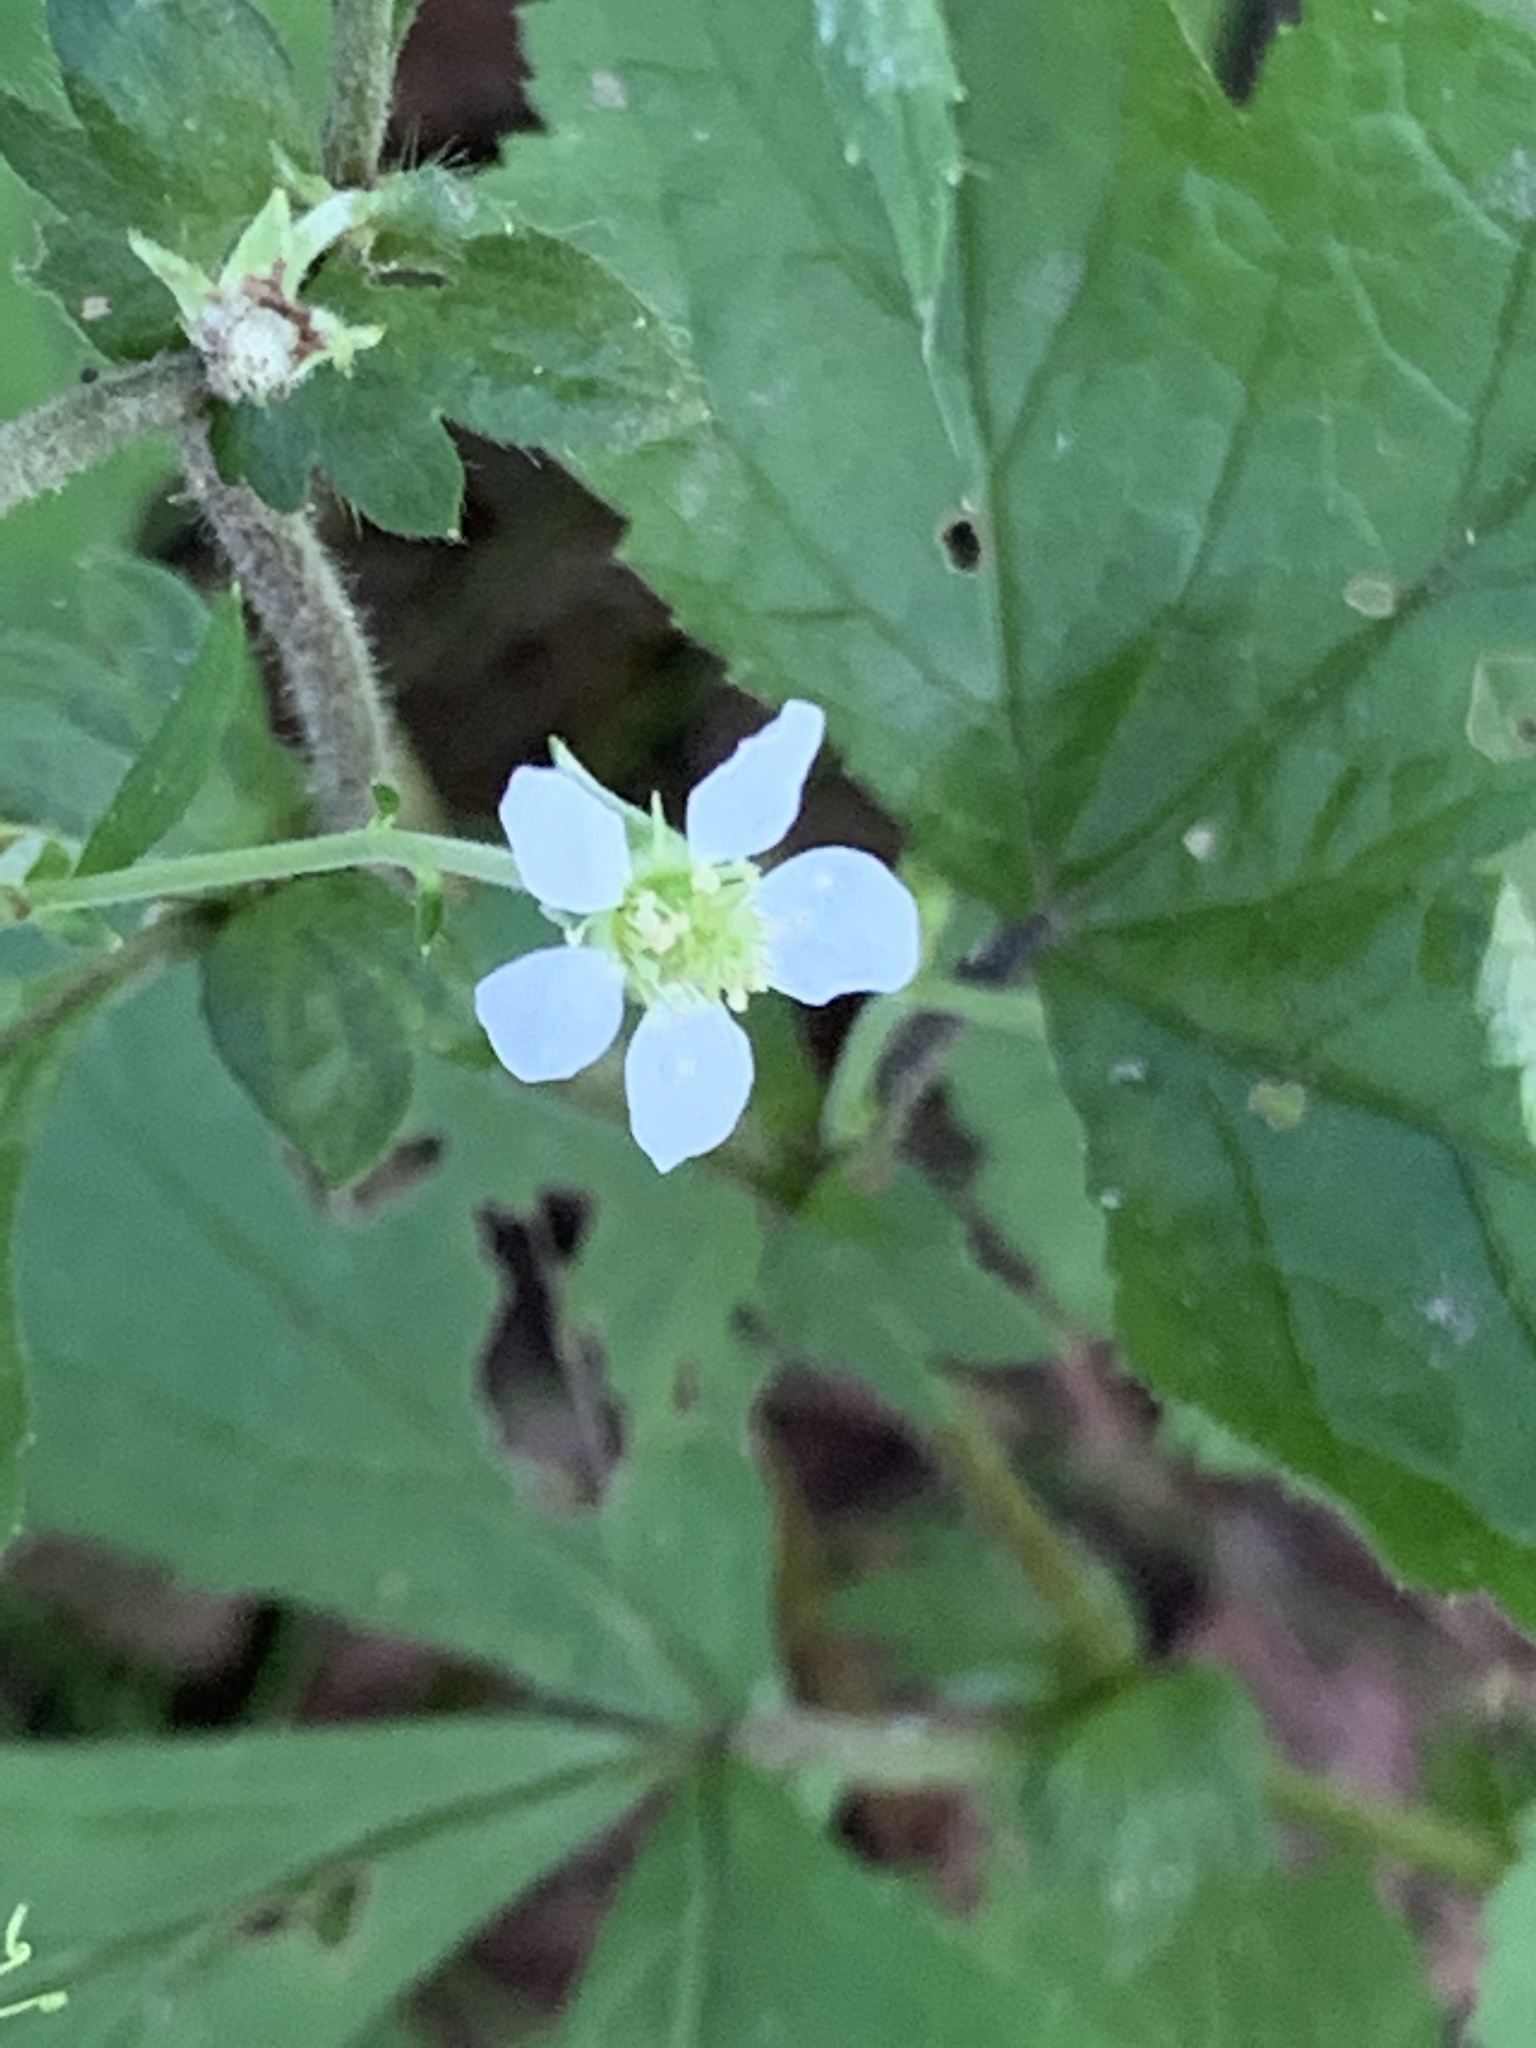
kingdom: Plantae
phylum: Tracheophyta
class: Magnoliopsida
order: Rosales
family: Rosaceae
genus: Geum
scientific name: Geum canadense
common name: White avens
